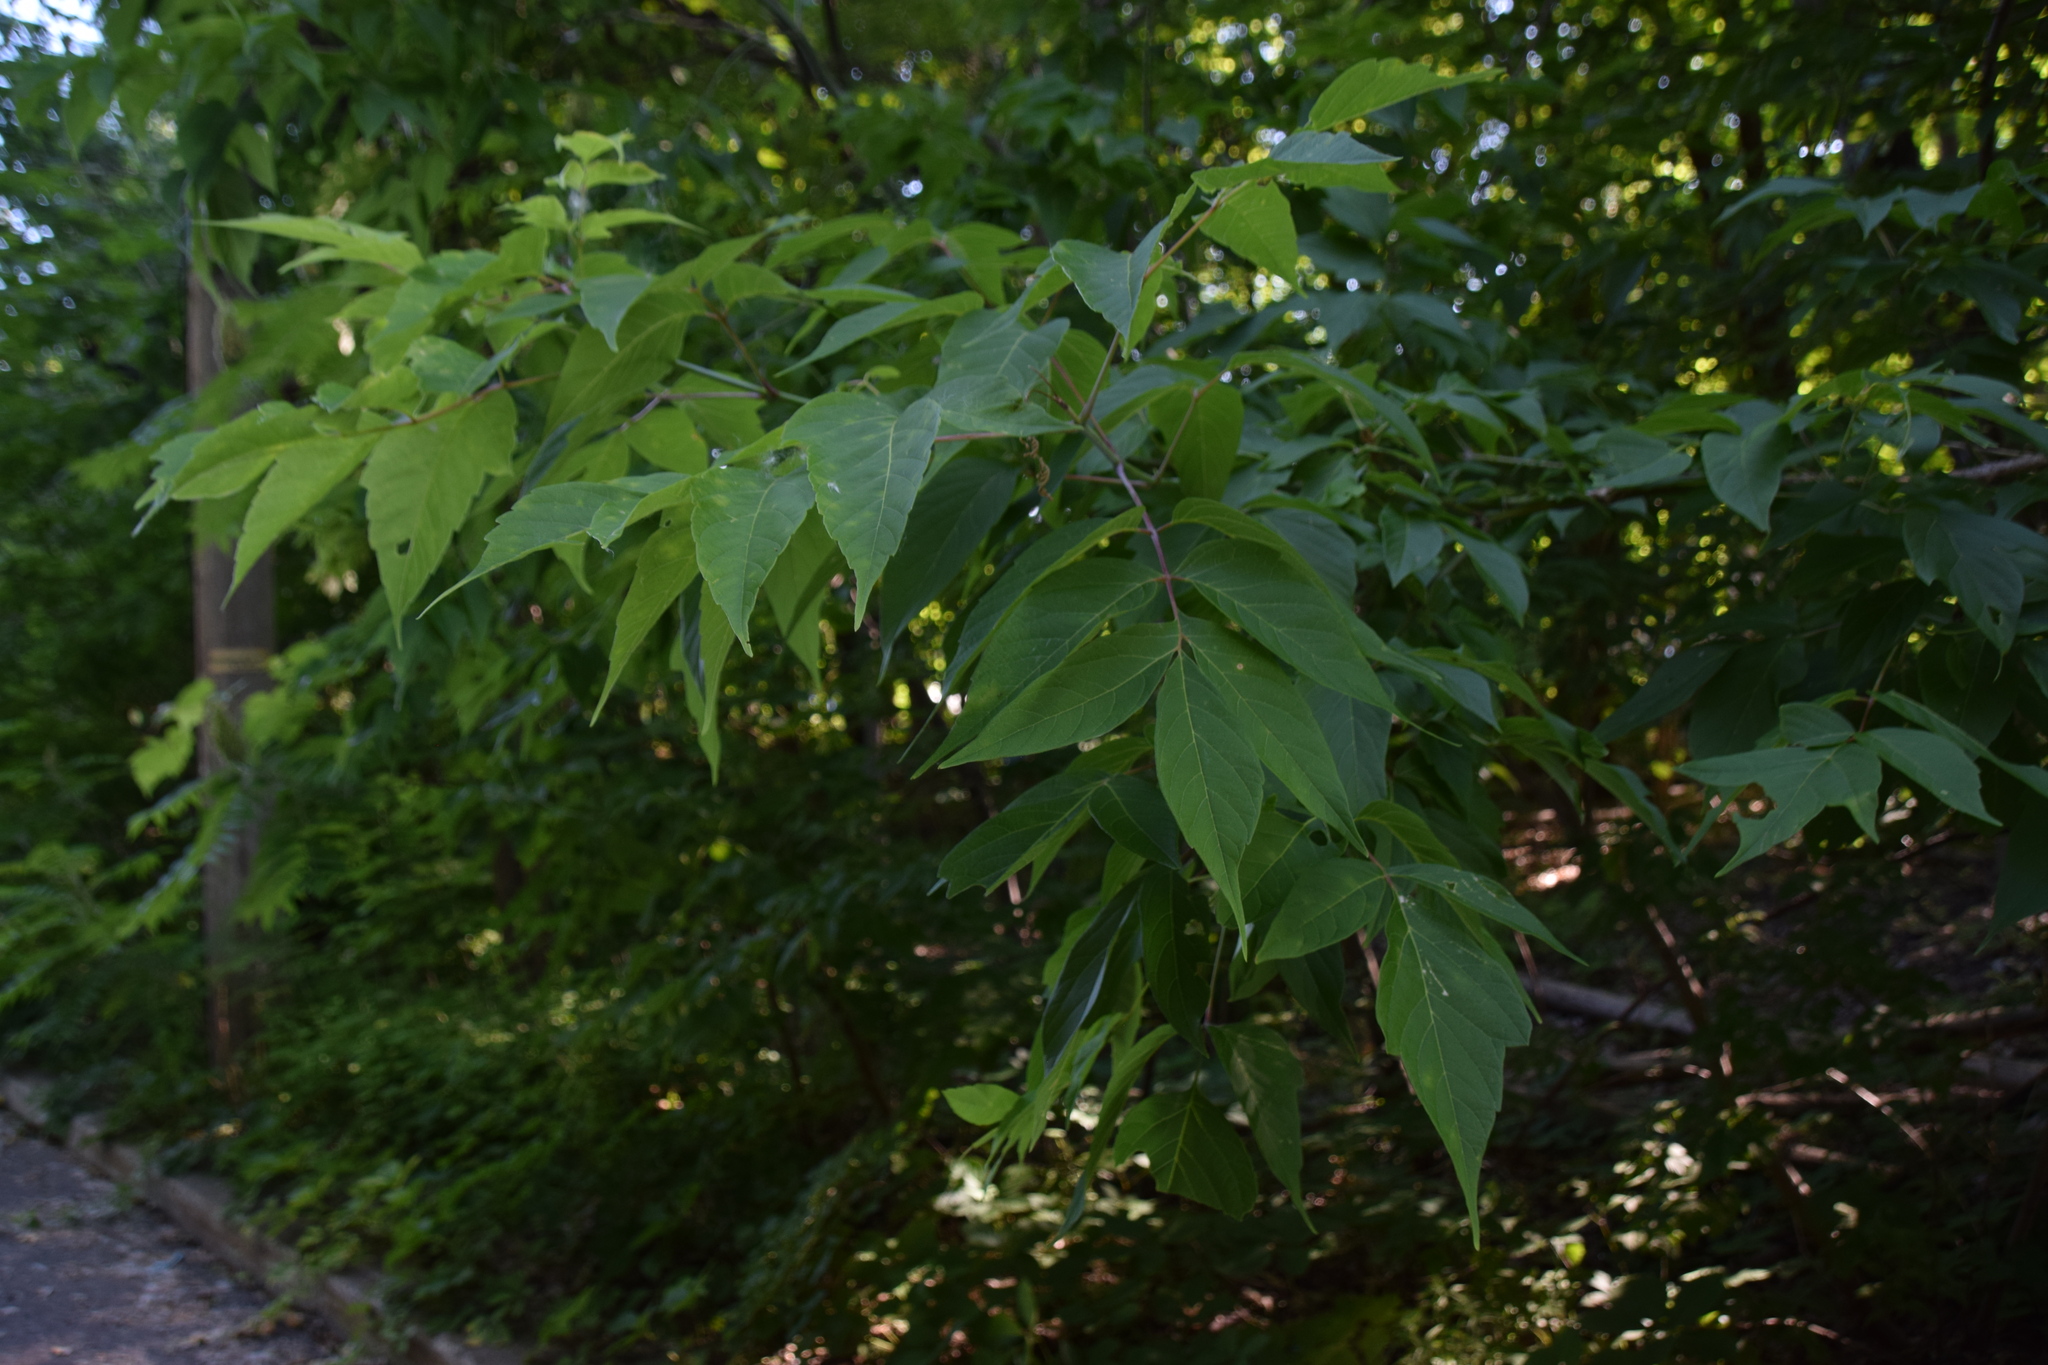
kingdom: Plantae
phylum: Tracheophyta
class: Magnoliopsida
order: Sapindales
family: Sapindaceae
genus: Acer
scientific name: Acer negundo
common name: Ashleaf maple
